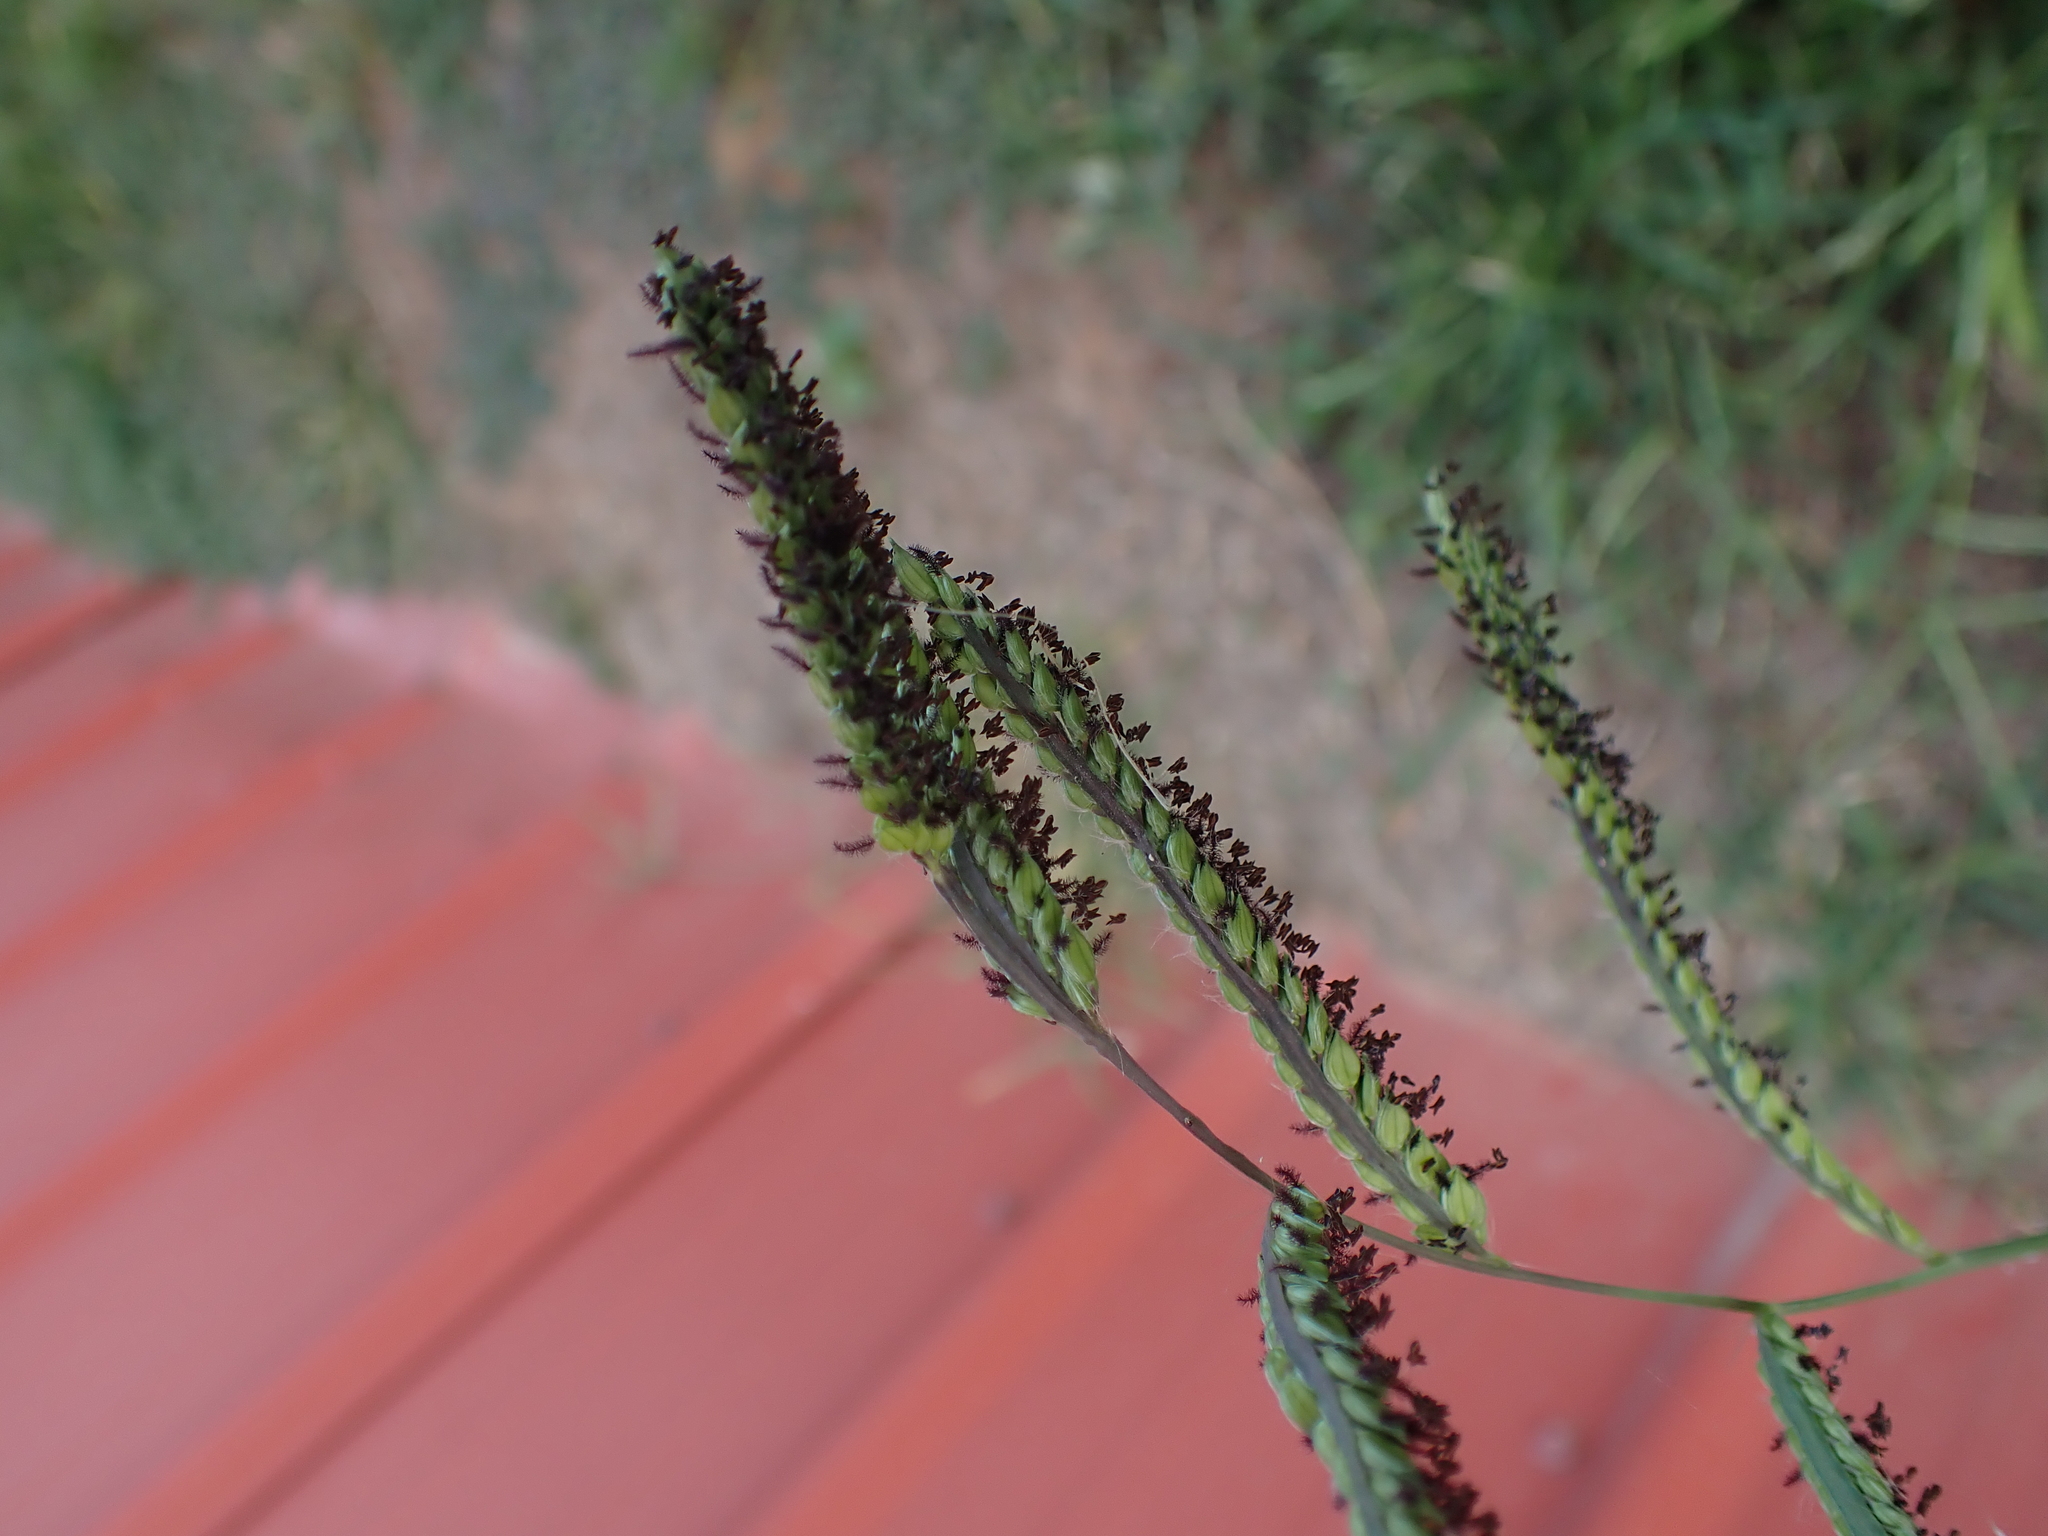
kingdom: Plantae
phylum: Tracheophyta
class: Liliopsida
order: Poales
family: Poaceae
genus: Paspalum
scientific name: Paspalum dilatatum
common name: Dallisgrass
